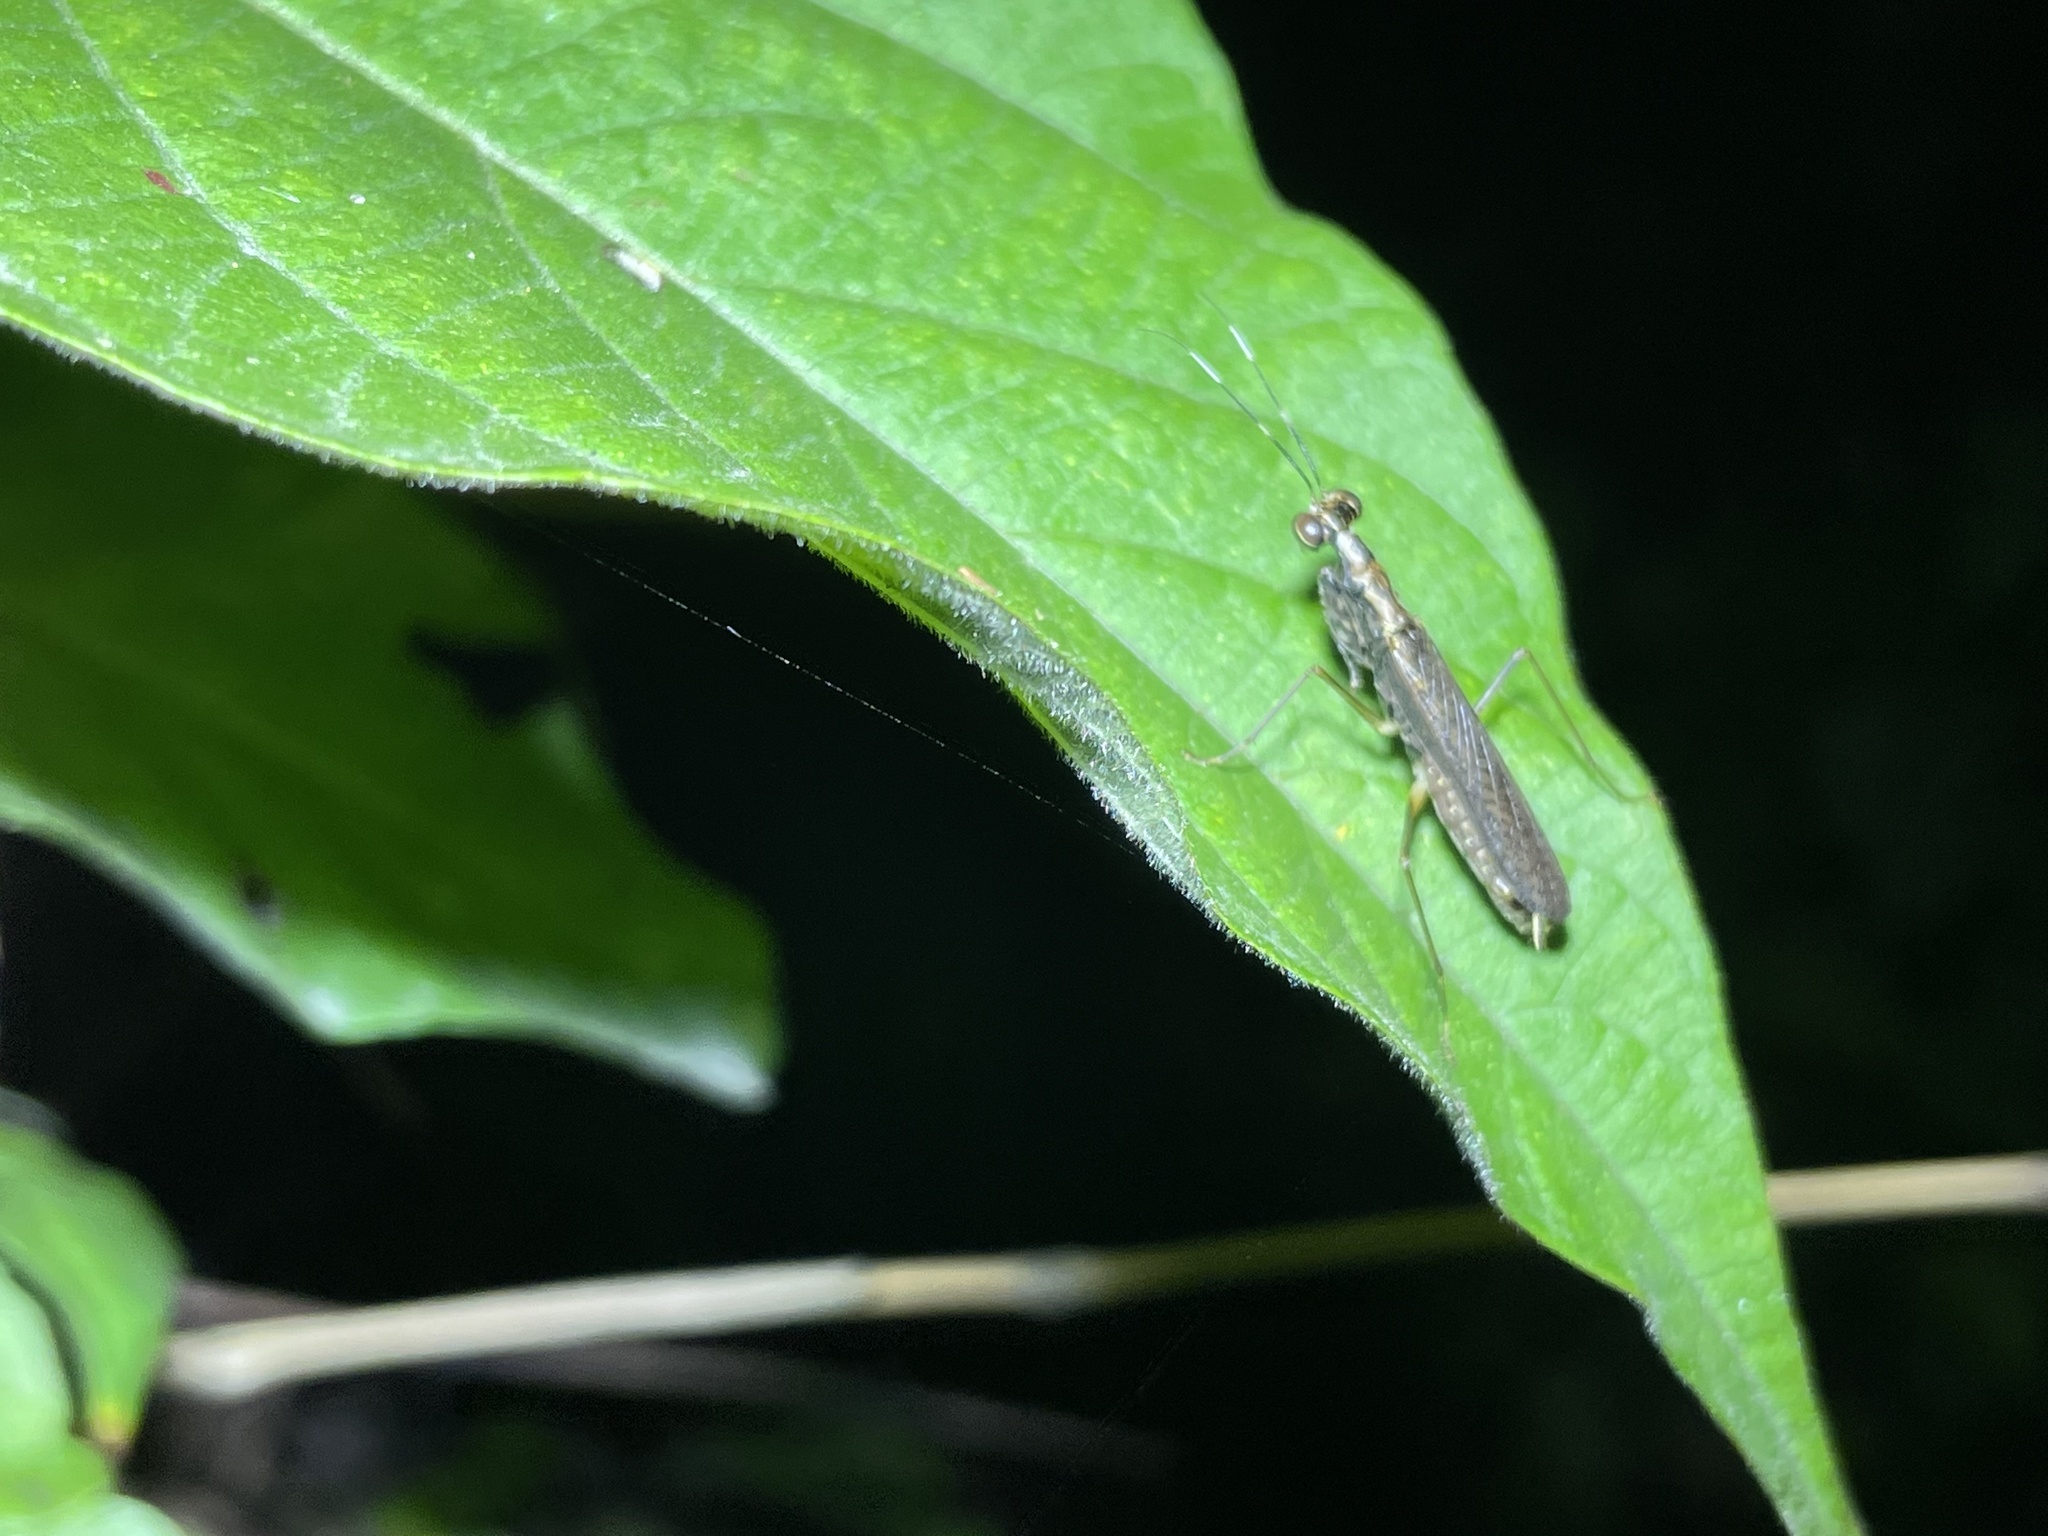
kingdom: Animalia
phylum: Arthropoda
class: Insecta
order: Mantodea
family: Gonypetidae
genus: Spilomantis
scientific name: Spilomantis occipitalis
